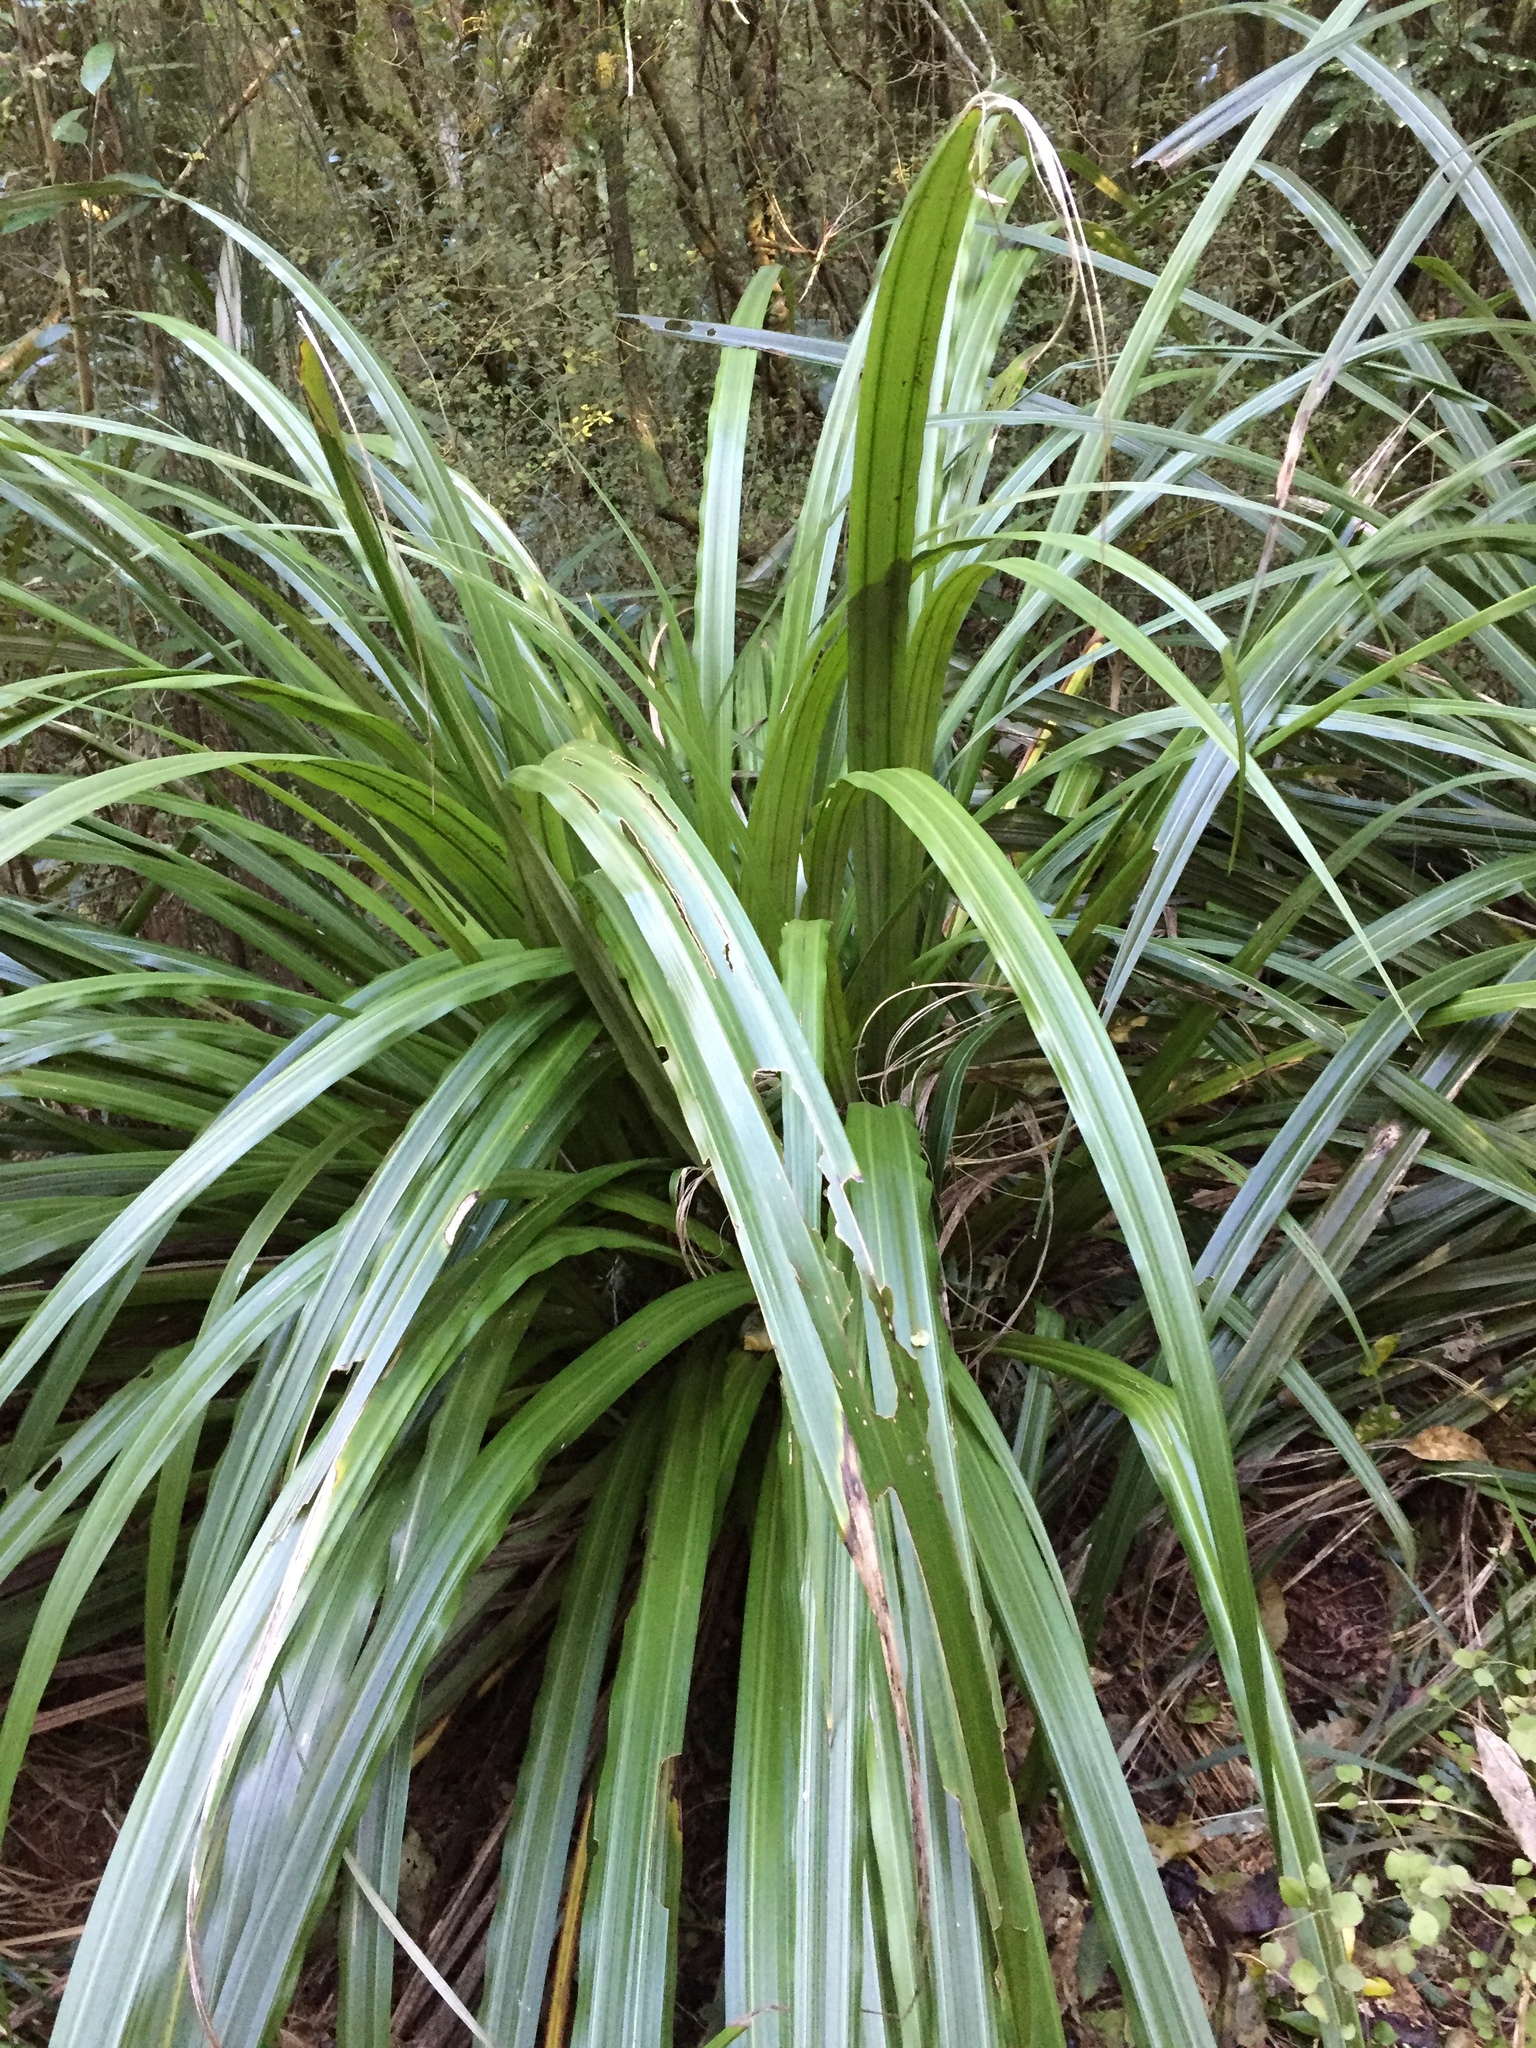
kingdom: Plantae
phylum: Tracheophyta
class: Liliopsida
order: Asparagales
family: Asteliaceae
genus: Astelia
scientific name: Astelia fragrans
